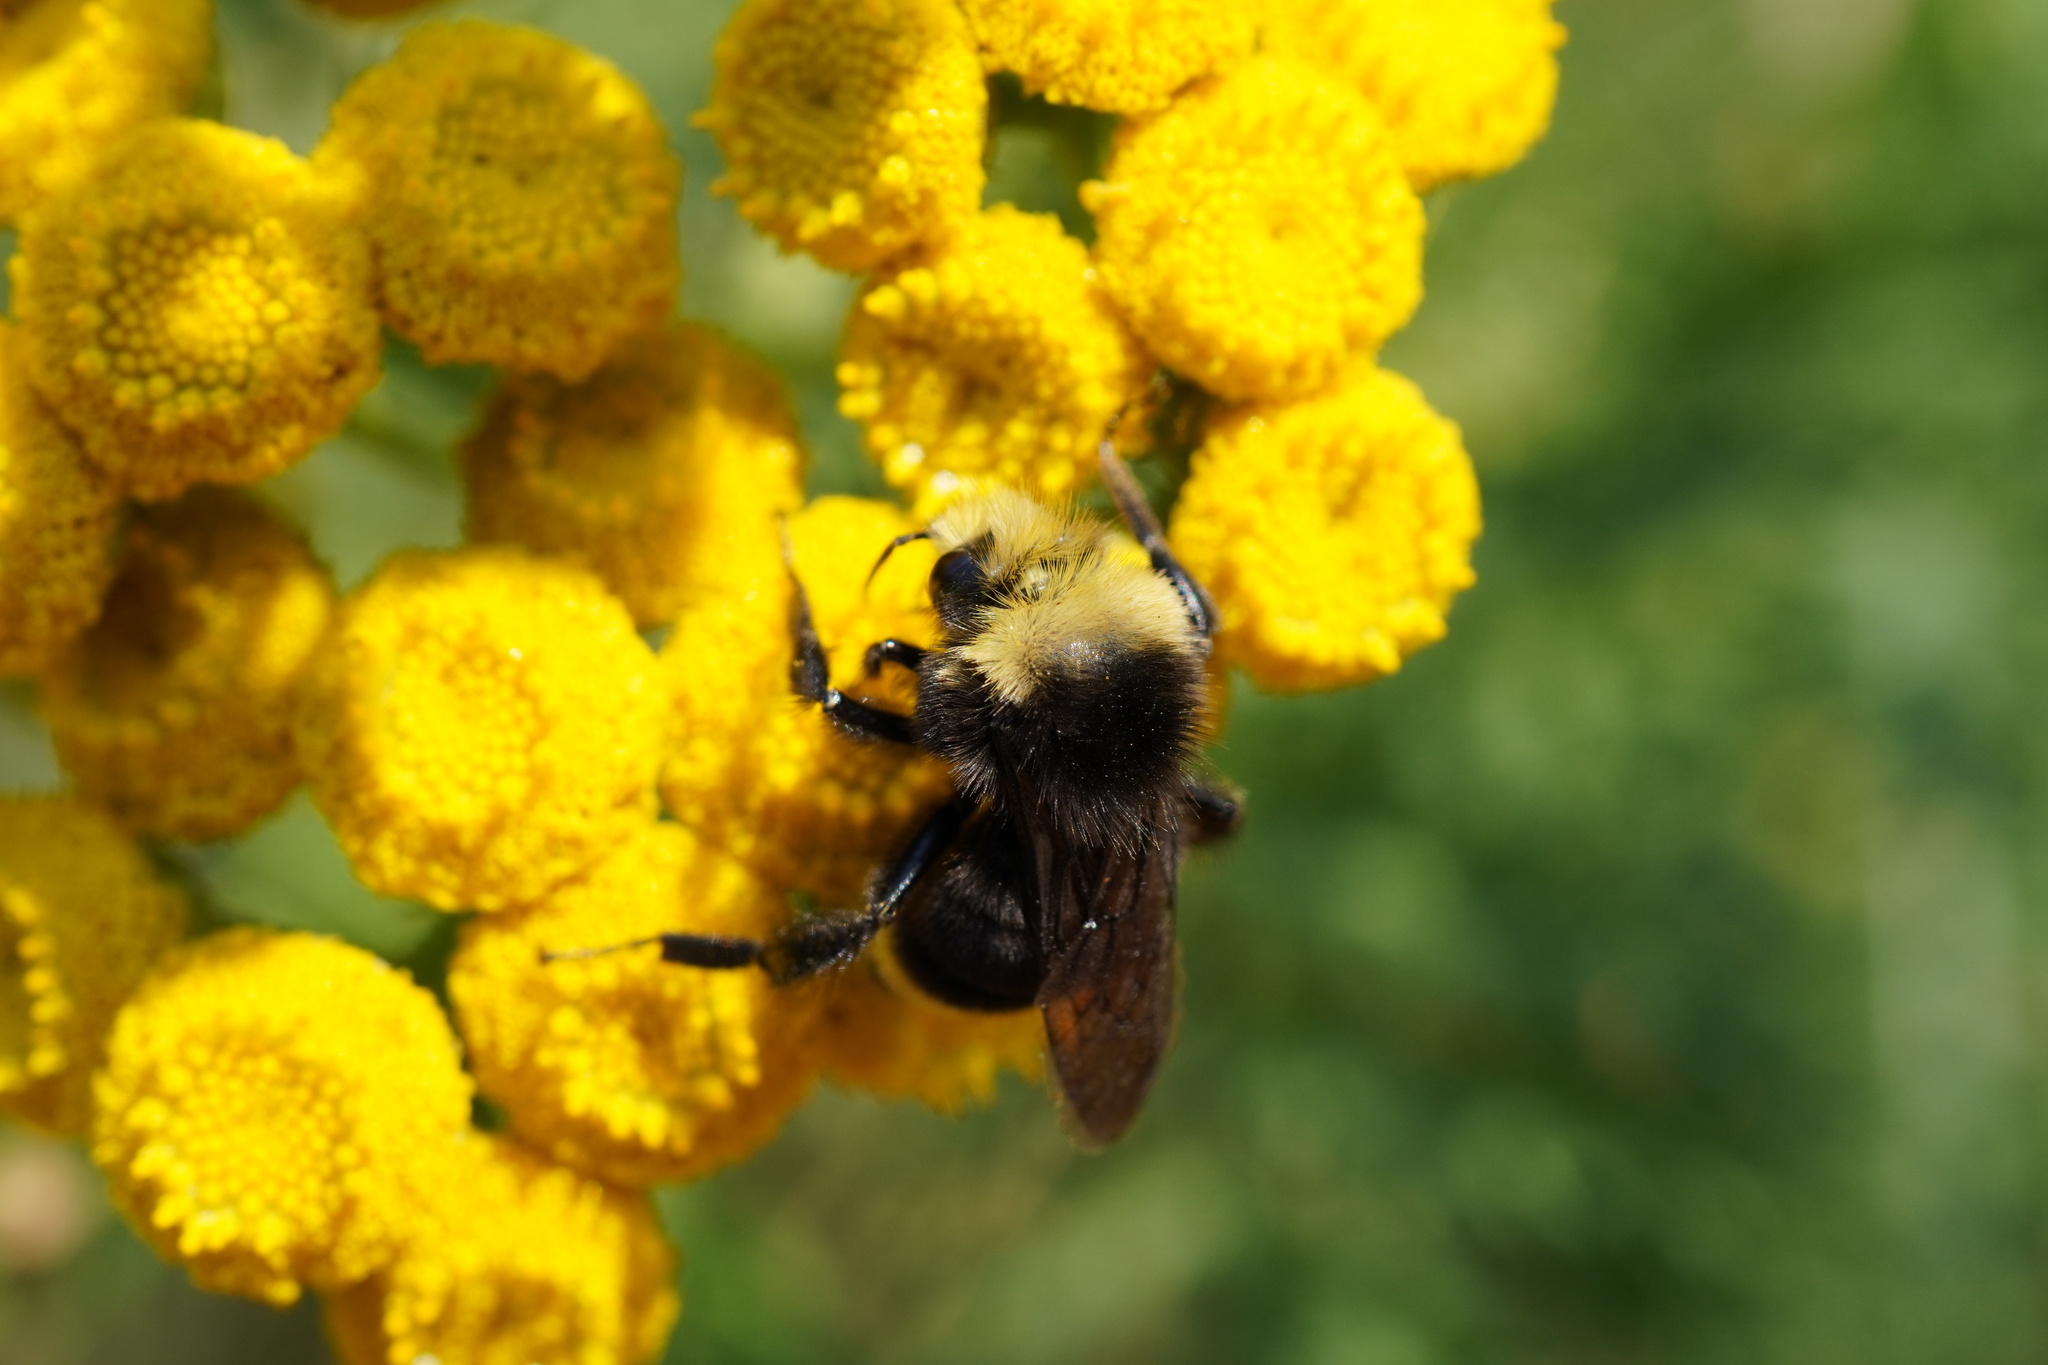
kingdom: Animalia
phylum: Arthropoda
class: Insecta
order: Hymenoptera
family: Apidae
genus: Bombus
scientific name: Bombus vosnesenskii
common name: Vosnesensky bumble bee
